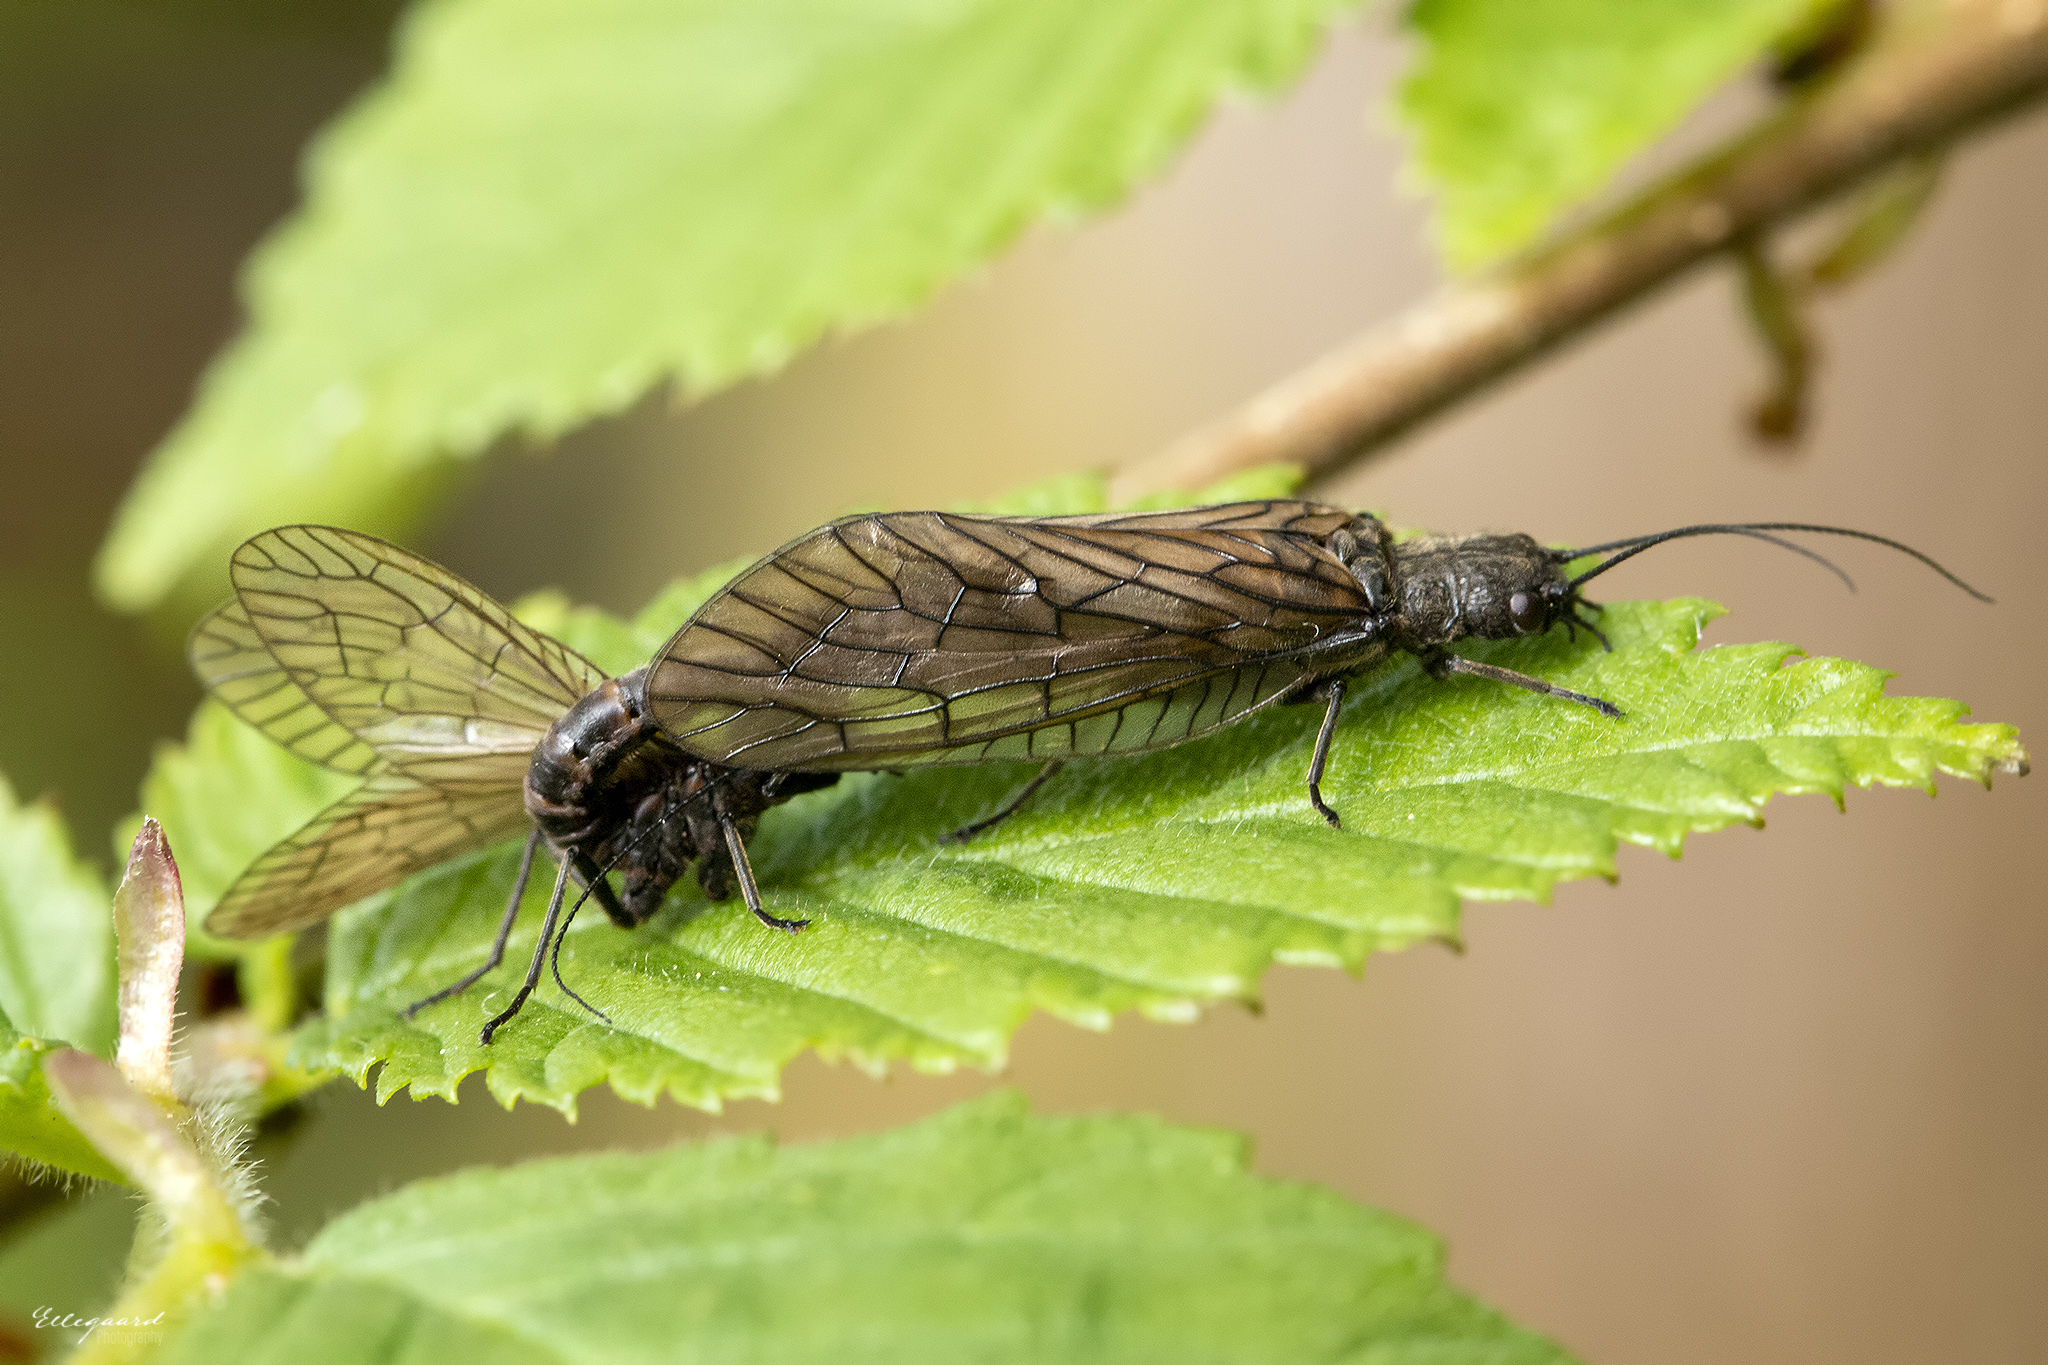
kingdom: Animalia
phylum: Arthropoda
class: Insecta
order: Megaloptera
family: Sialidae
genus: Sialis
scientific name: Sialis
